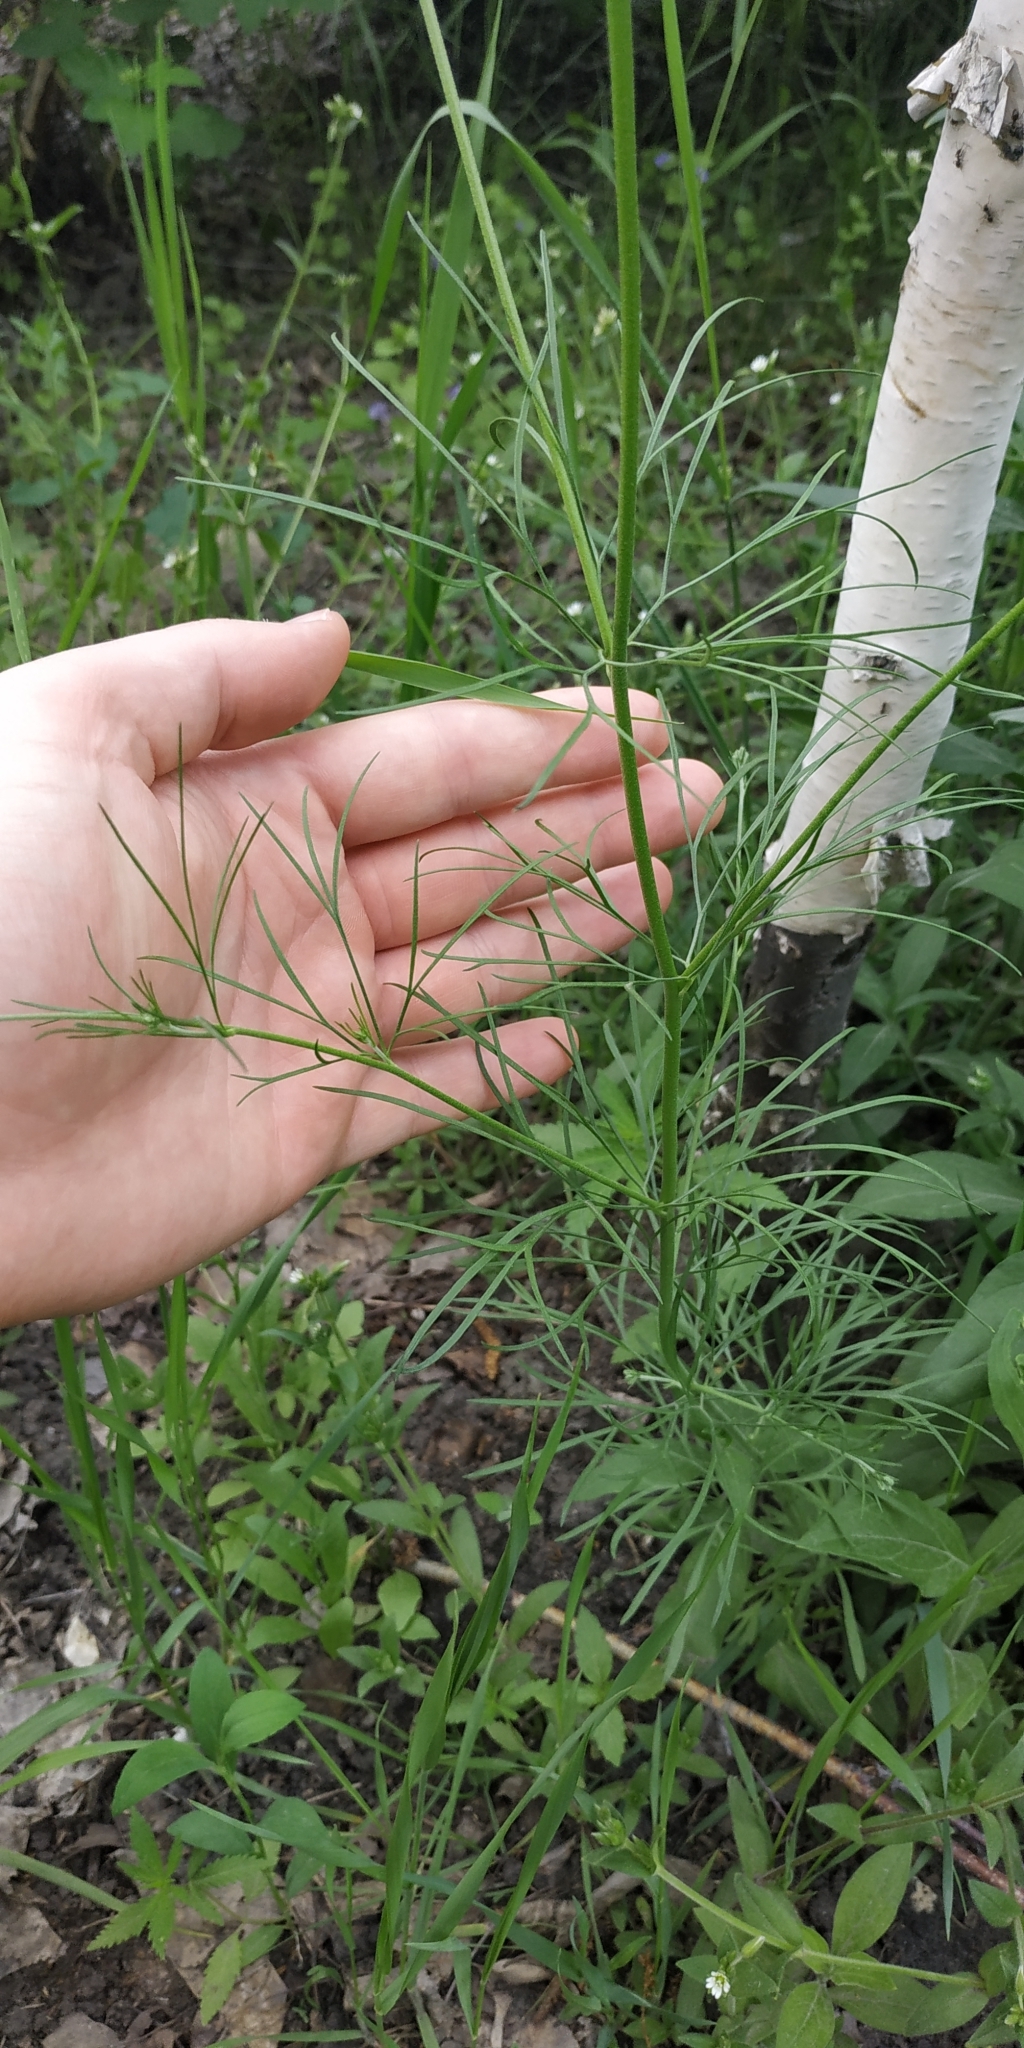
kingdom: Plantae
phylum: Tracheophyta
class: Magnoliopsida
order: Ranunculales
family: Ranunculaceae
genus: Delphinium
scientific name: Delphinium consolida
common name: Branching larkspur
